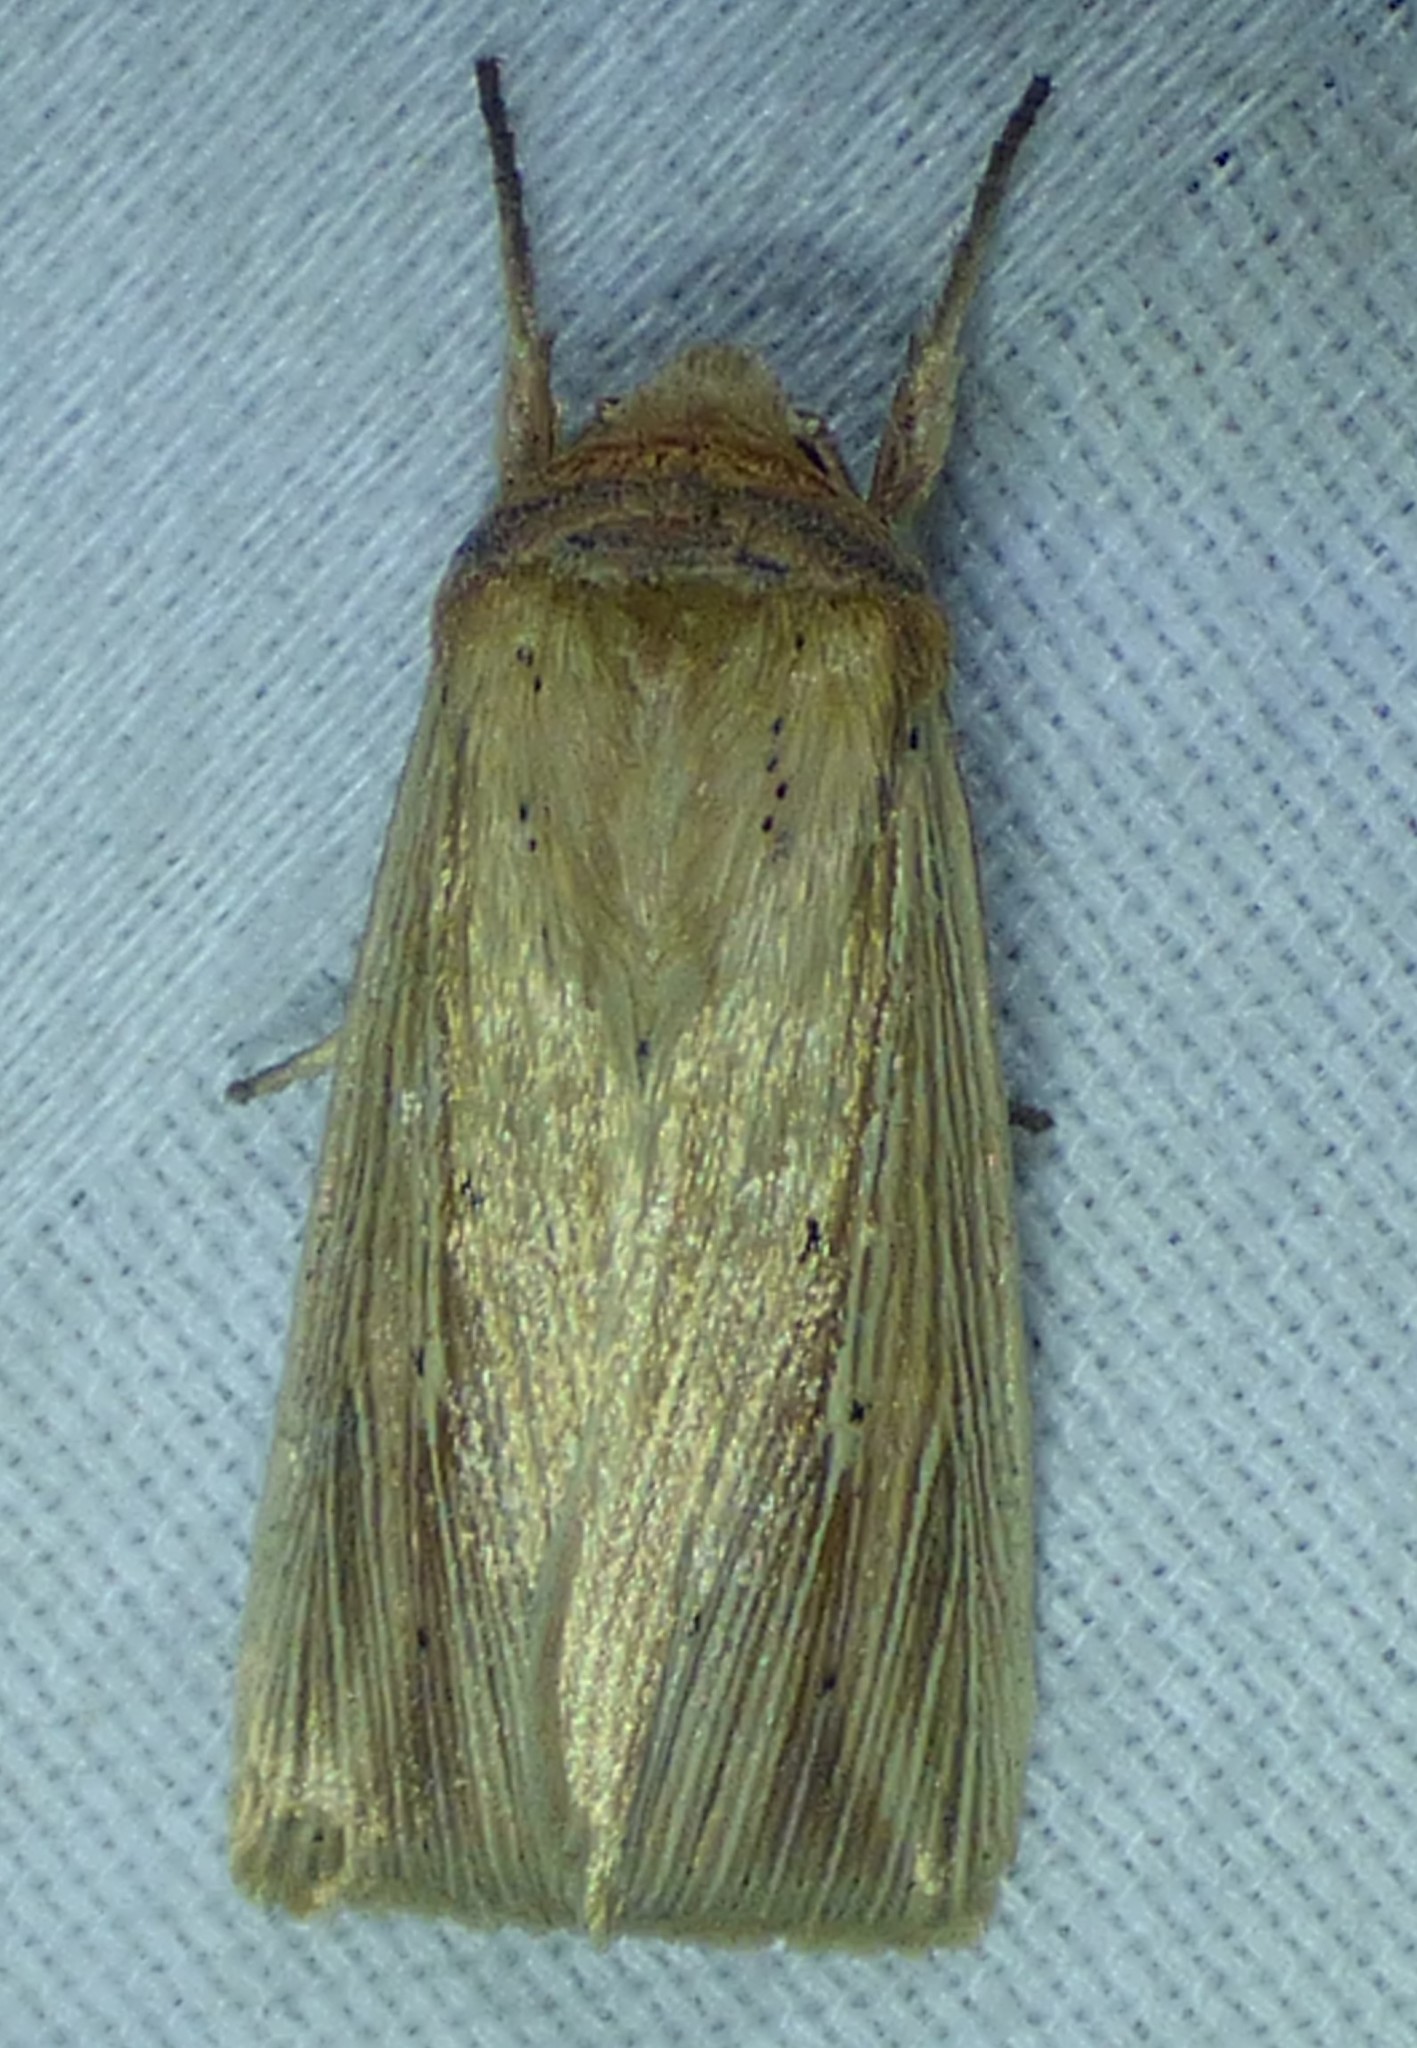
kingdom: Animalia
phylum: Arthropoda
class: Insecta
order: Lepidoptera
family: Noctuidae
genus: Leucania
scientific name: Leucania adjuta
